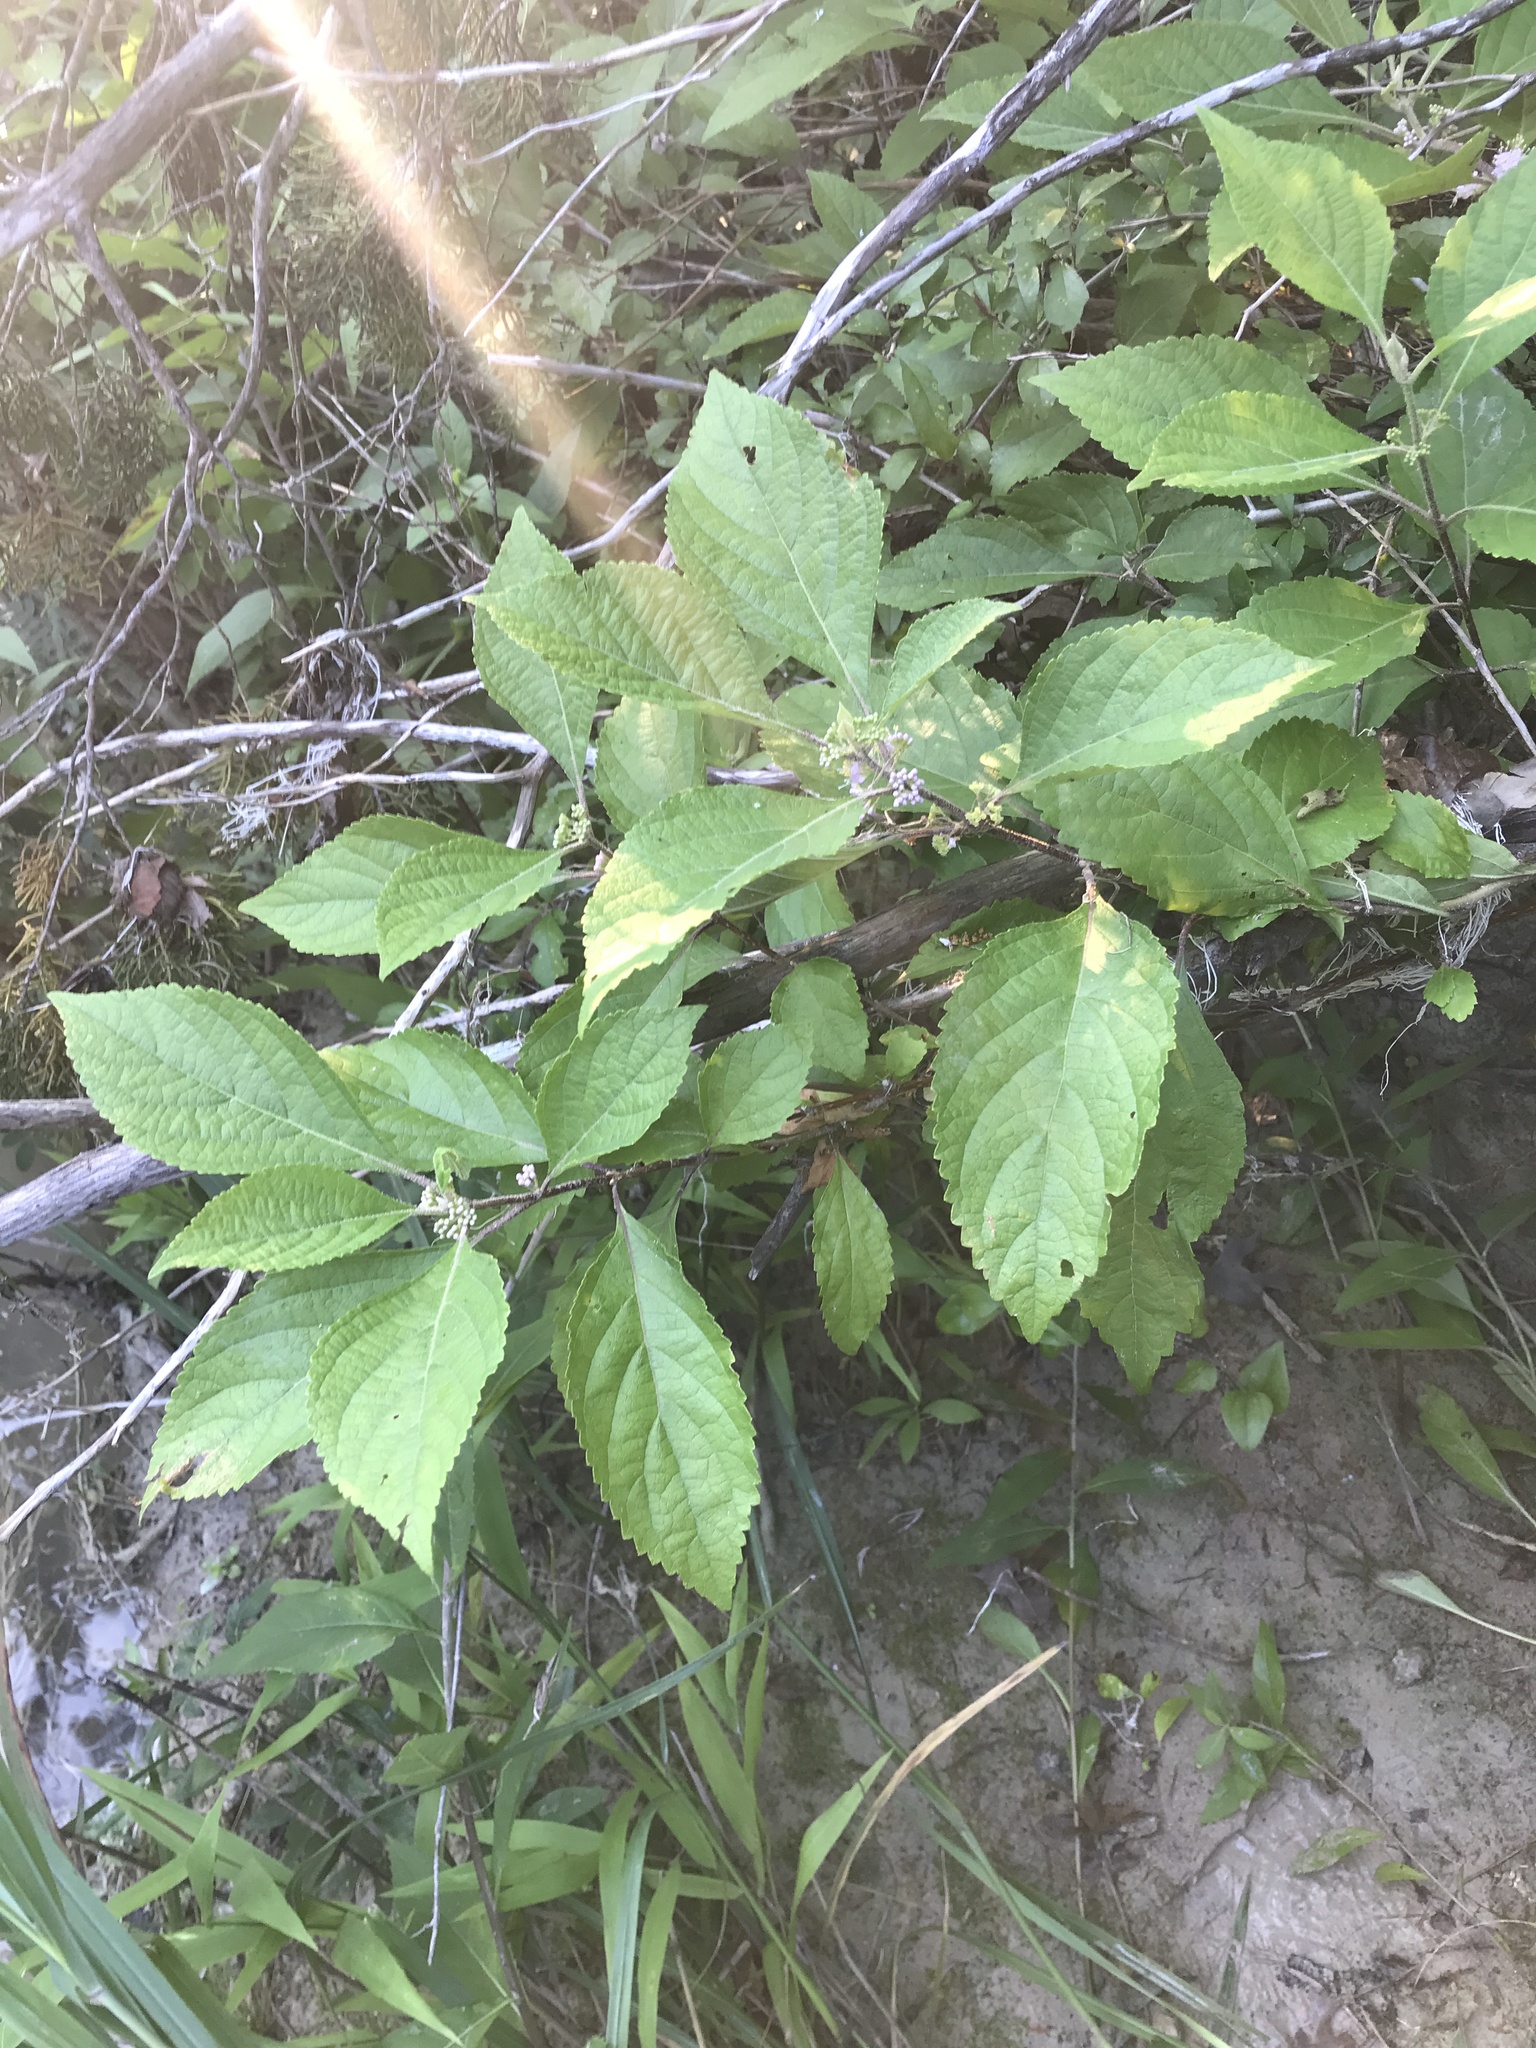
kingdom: Plantae
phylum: Tracheophyta
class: Magnoliopsida
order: Lamiales
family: Lamiaceae
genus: Callicarpa
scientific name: Callicarpa americana
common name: American beautyberry
